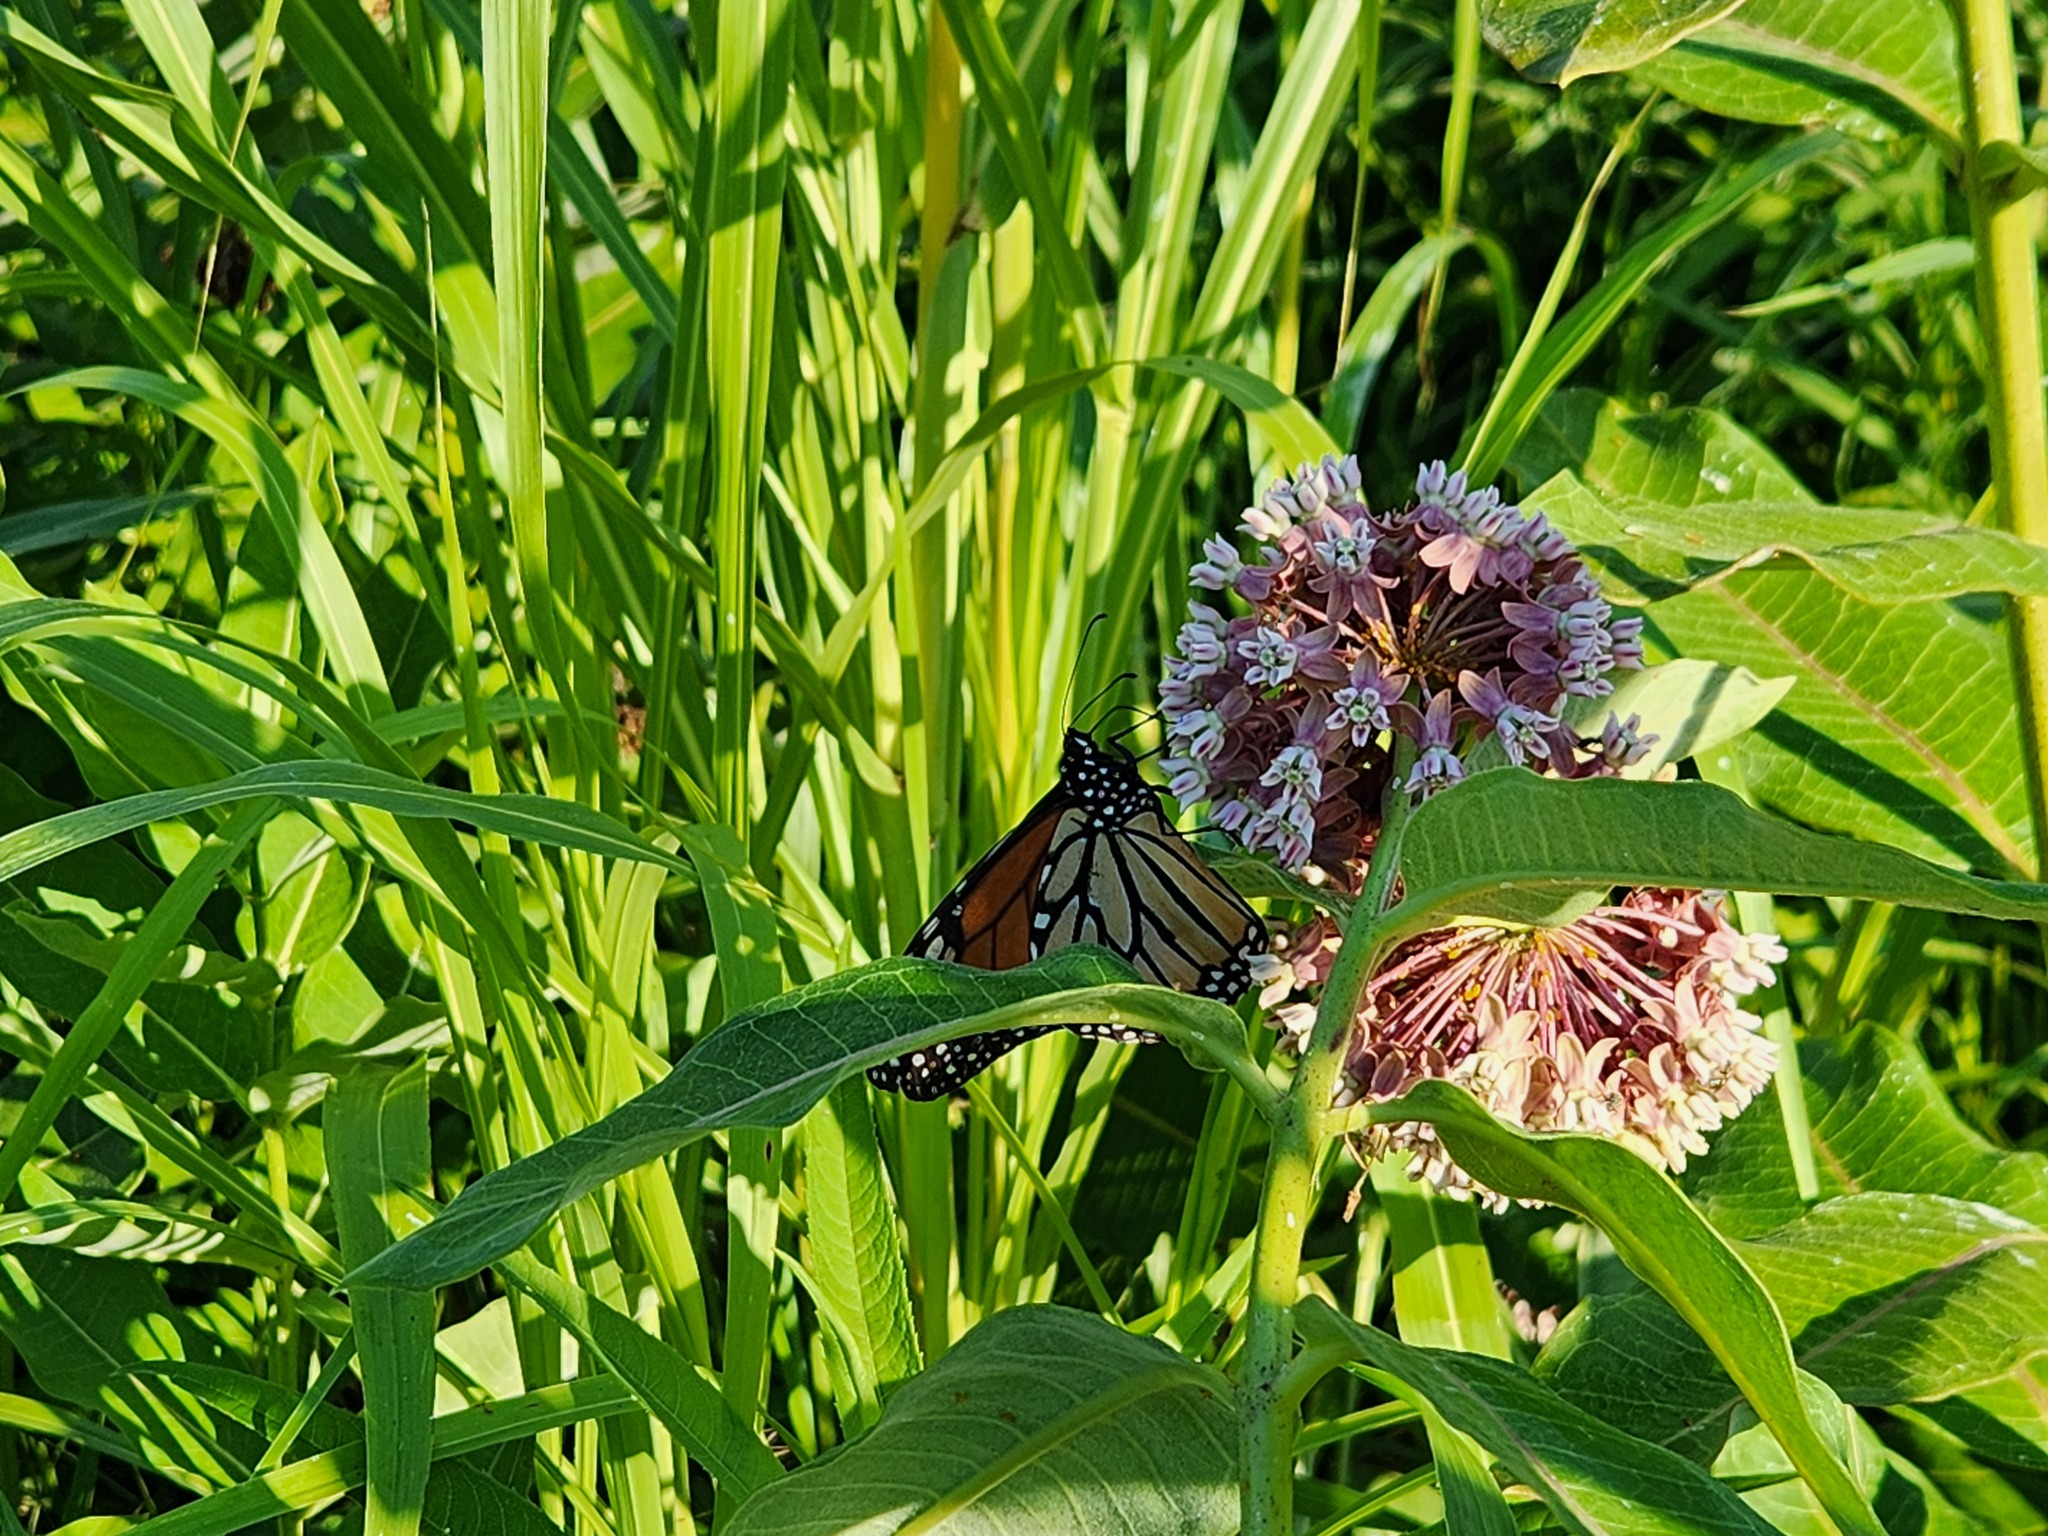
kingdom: Animalia
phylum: Arthropoda
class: Insecta
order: Lepidoptera
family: Nymphalidae
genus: Danaus
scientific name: Danaus plexippus
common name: Monarch
